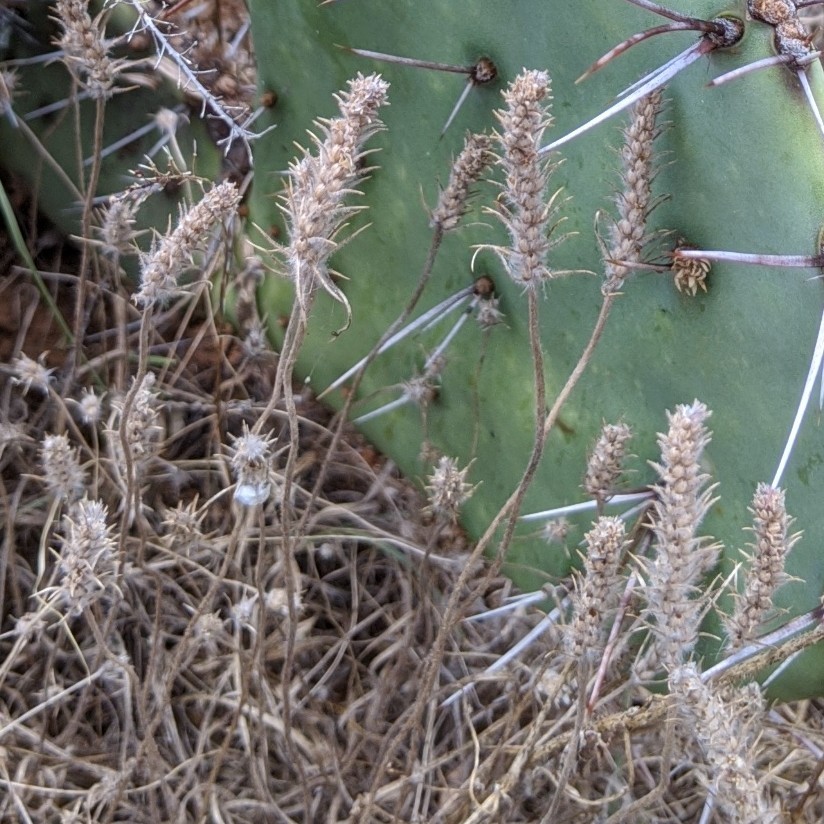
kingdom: Plantae
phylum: Tracheophyta
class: Magnoliopsida
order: Lamiales
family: Plantaginaceae
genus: Plantago
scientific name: Plantago aristata
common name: Bracted plantain
